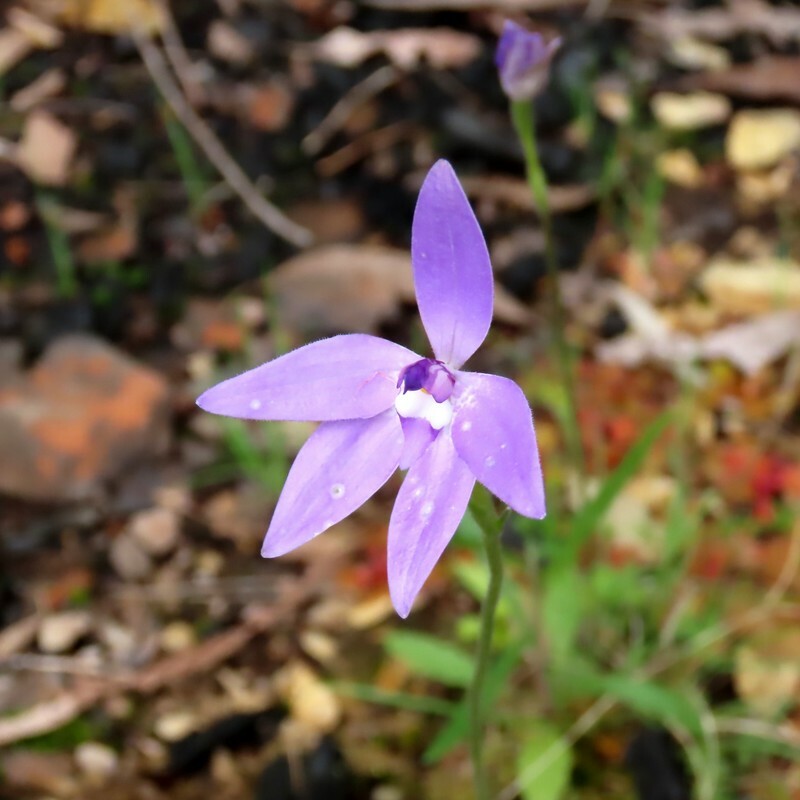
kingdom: Plantae
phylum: Tracheophyta
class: Liliopsida
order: Asparagales
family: Orchidaceae
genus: Caladenia
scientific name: Caladenia major
